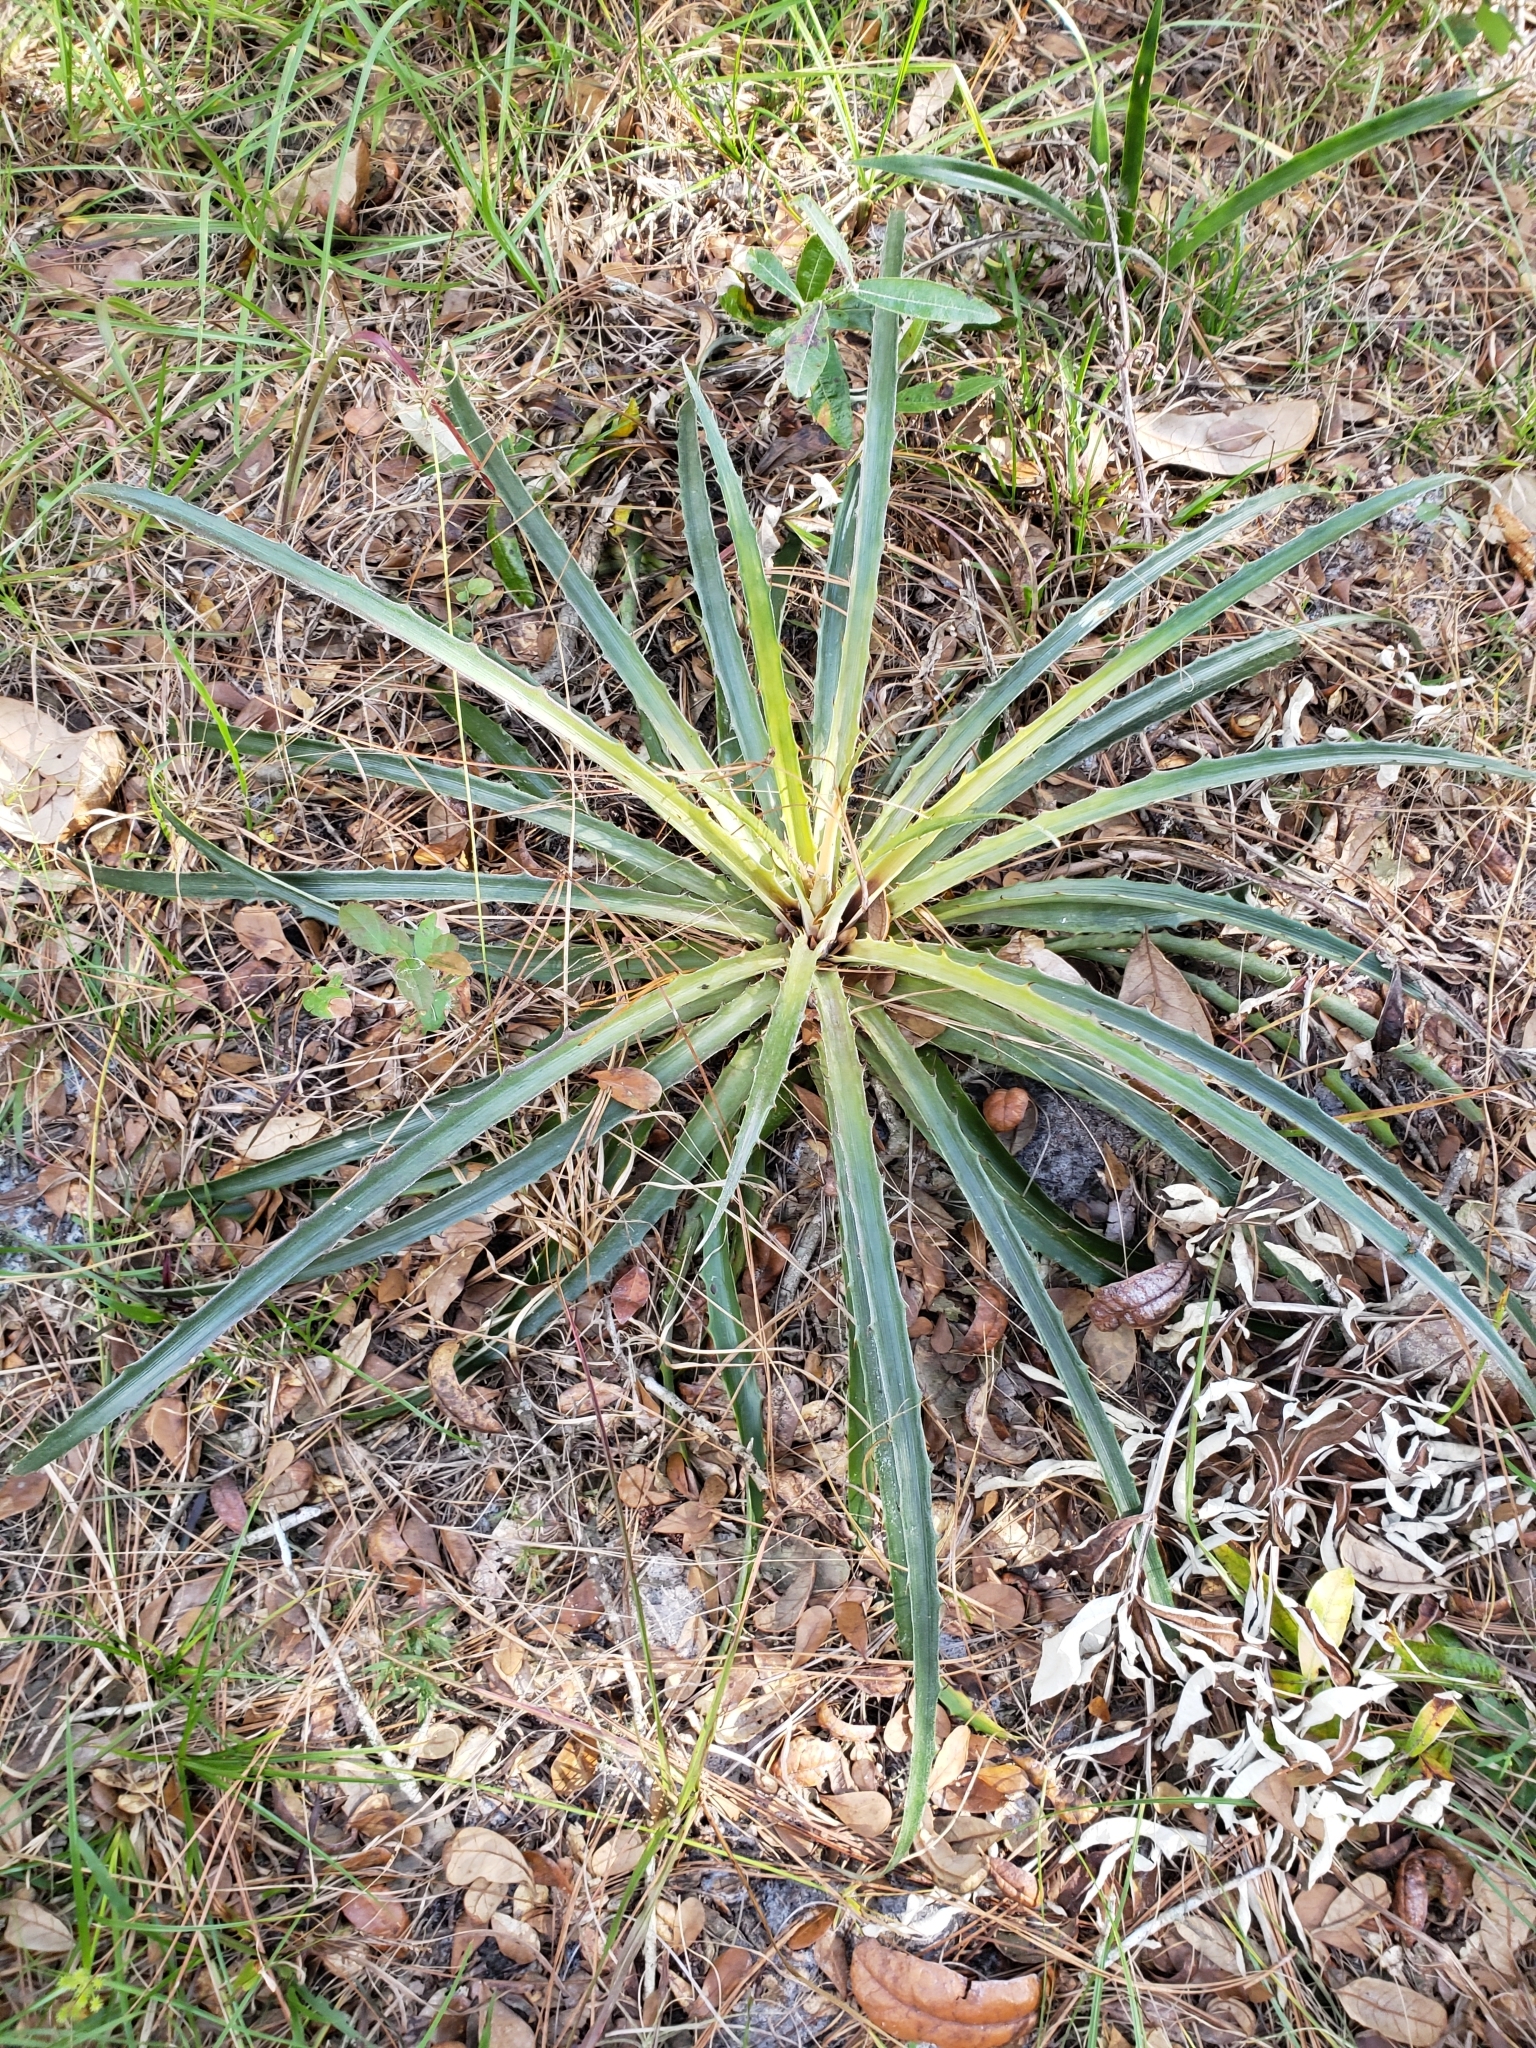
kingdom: Plantae
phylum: Tracheophyta
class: Liliopsida
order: Poales
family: Bromeliaceae
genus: Bromelia
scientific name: Bromelia pinguin
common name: Pinguin
